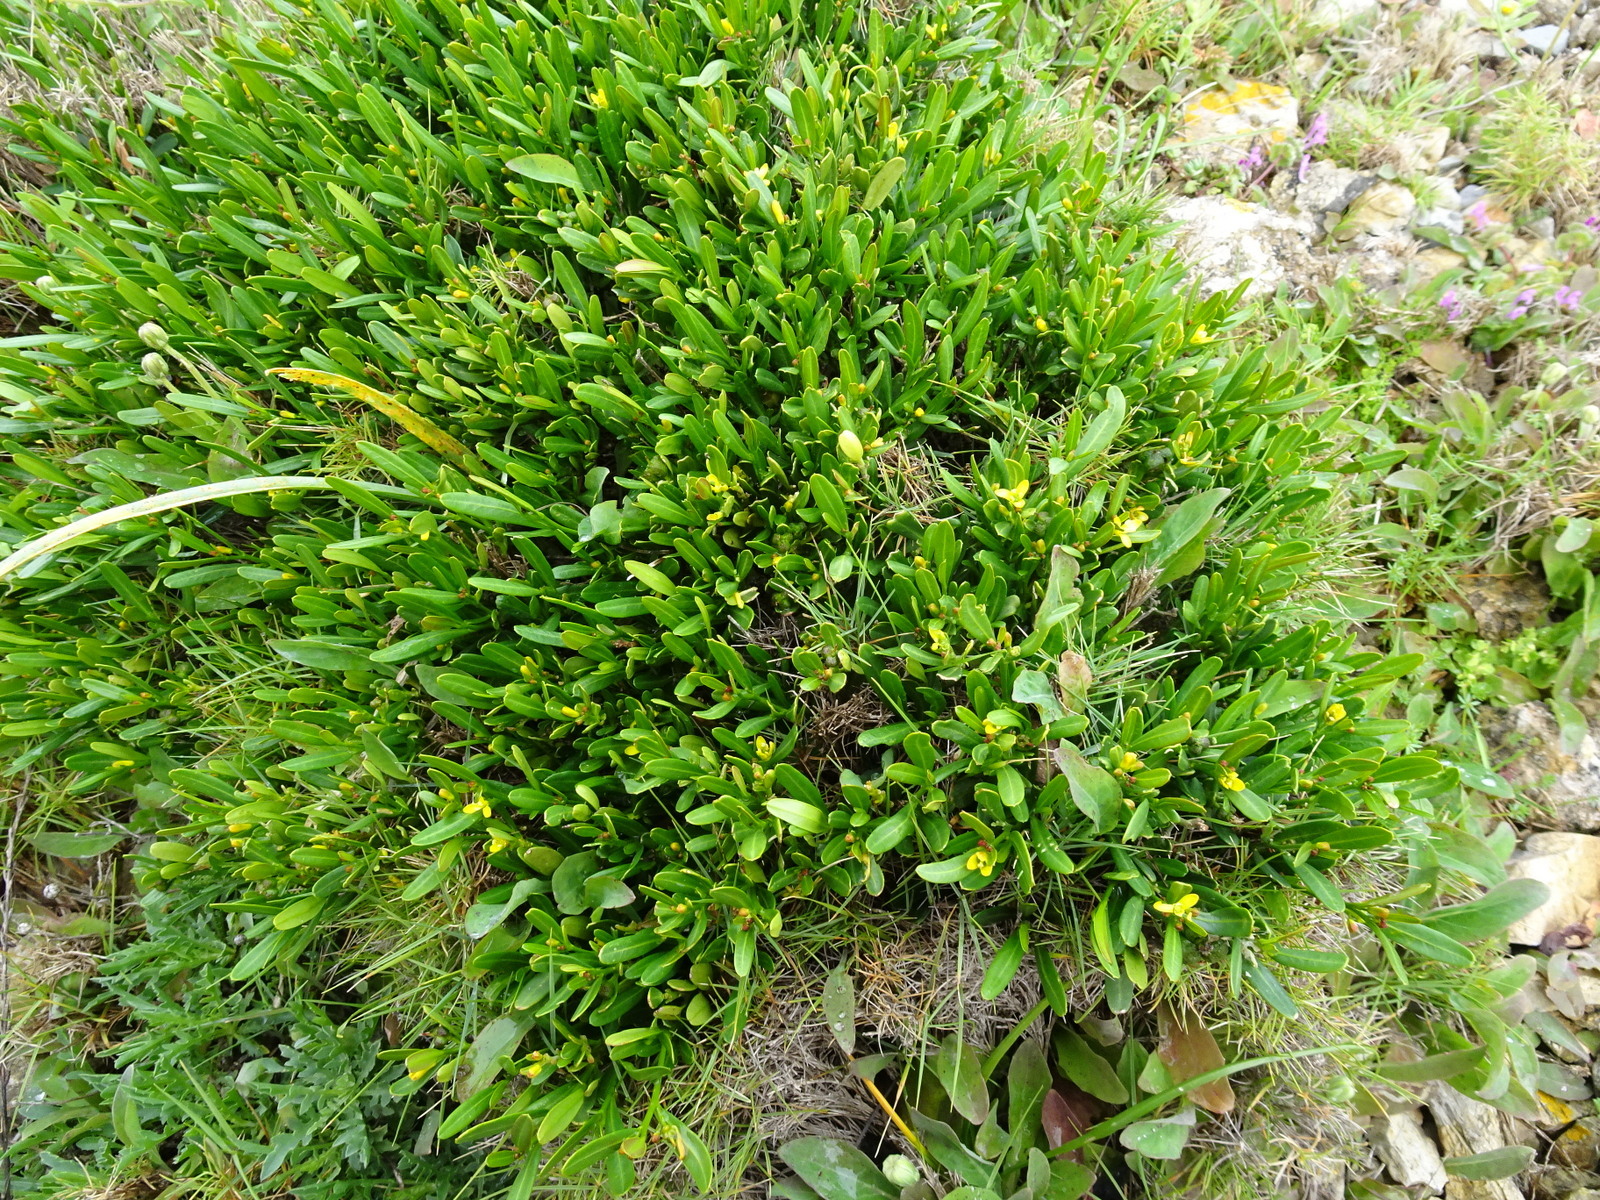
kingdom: Plantae
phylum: Tracheophyta
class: Magnoliopsida
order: Sapindales
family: Rutaceae
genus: Cneorum
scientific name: Cneorum tricoccon
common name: Spurge olive
